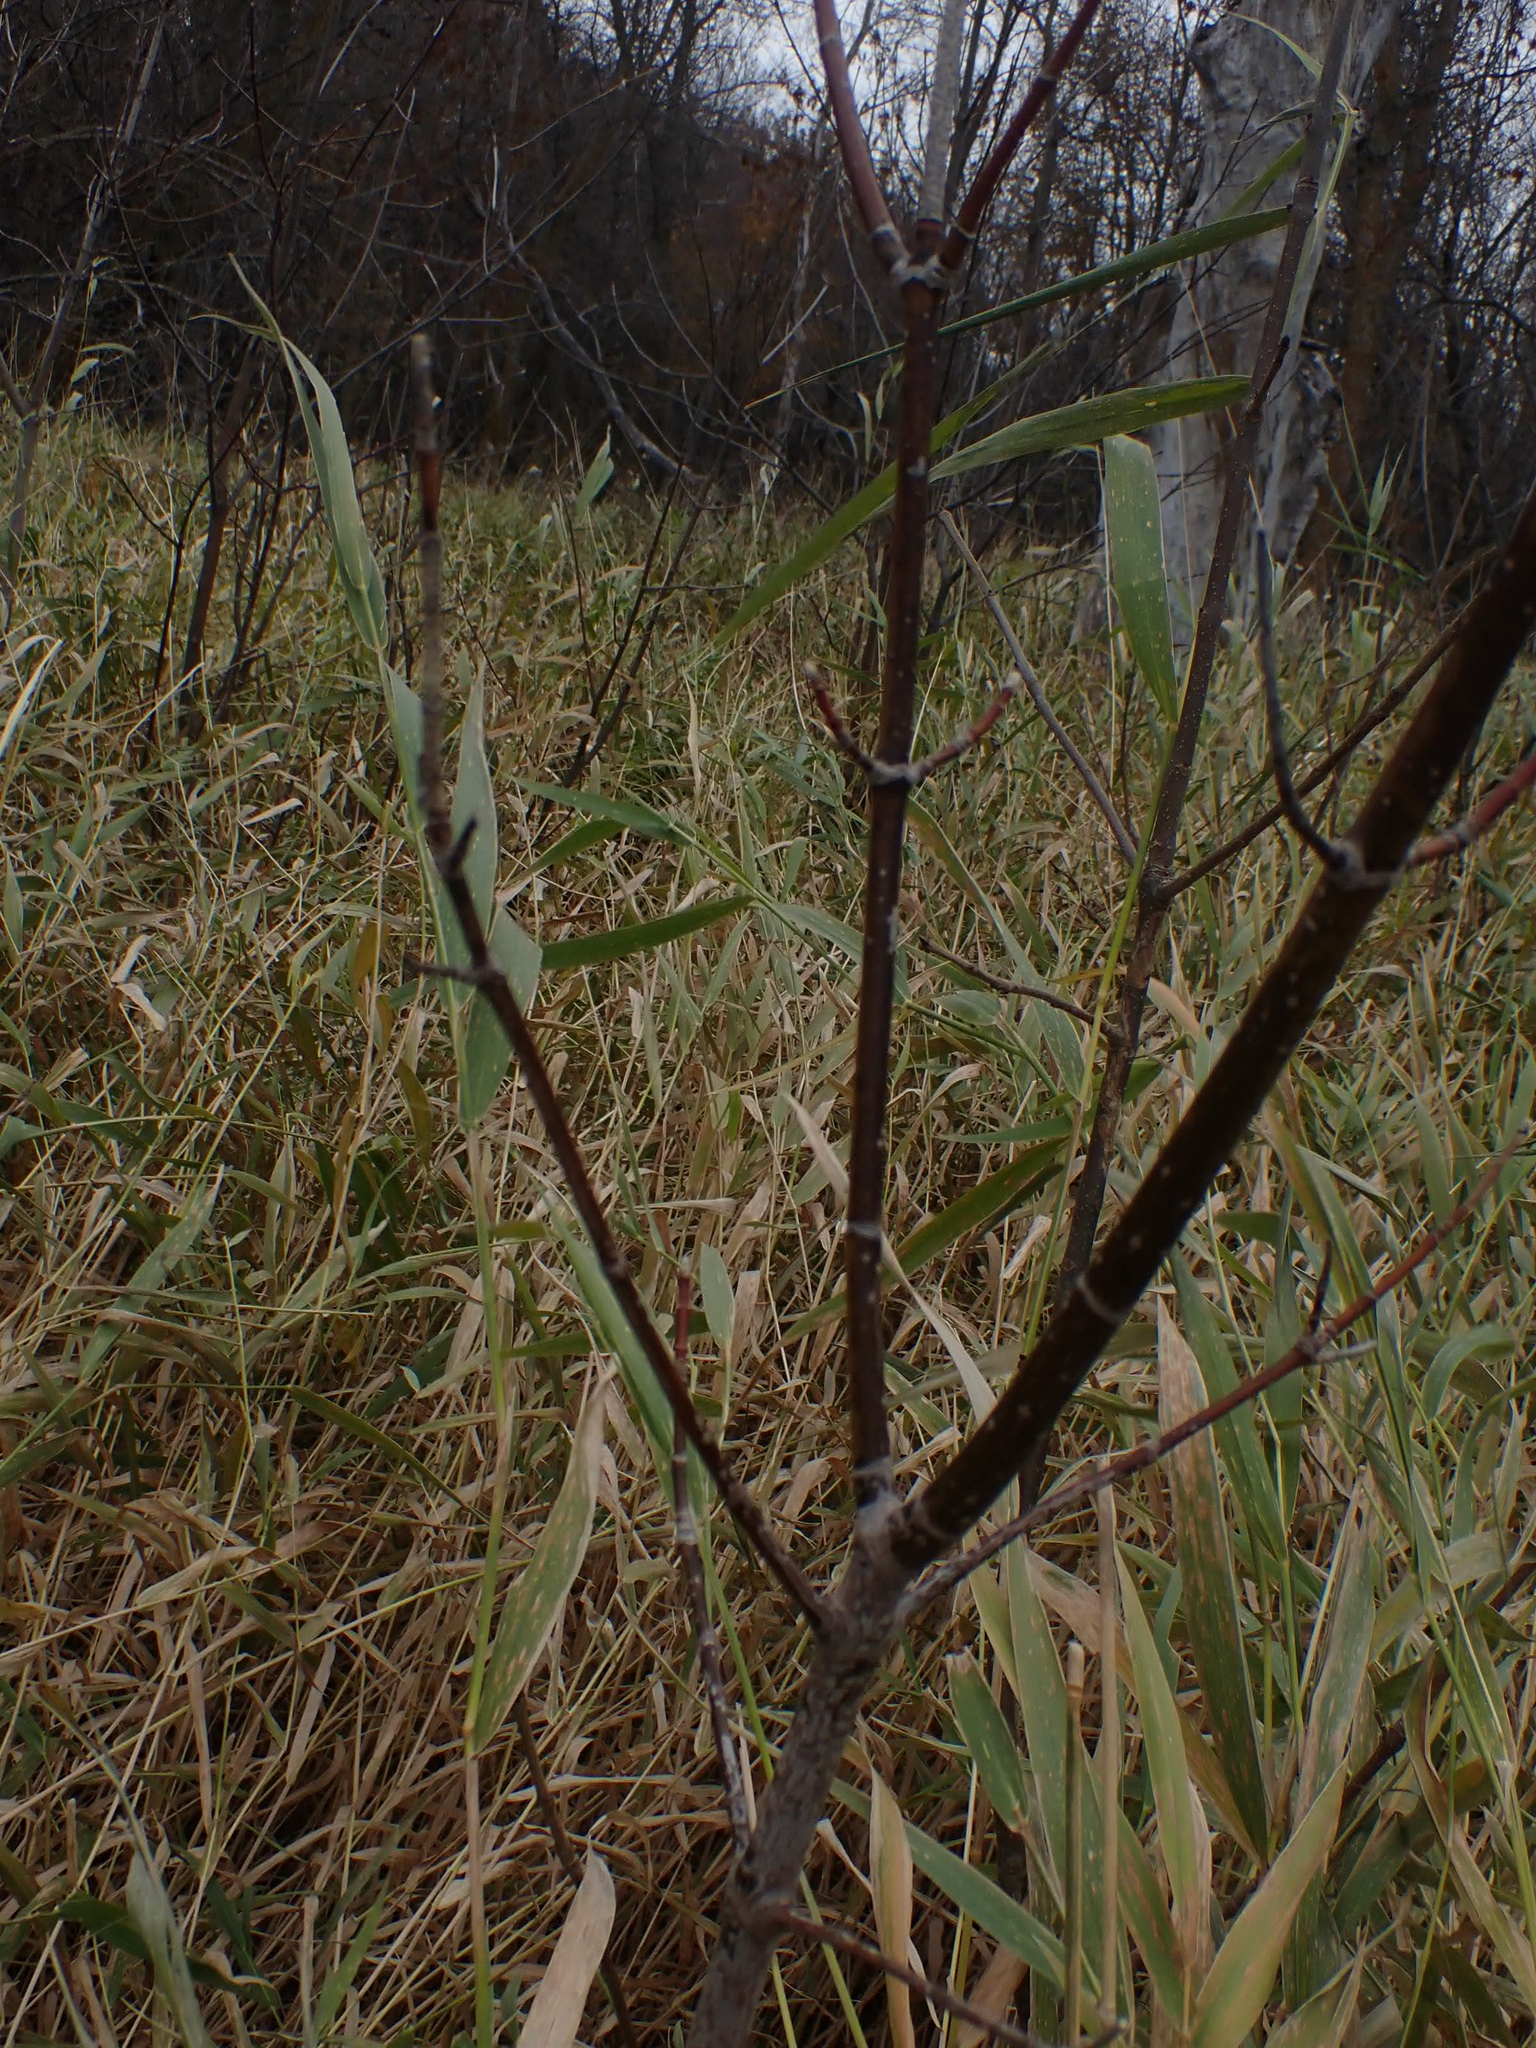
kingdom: Plantae
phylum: Tracheophyta
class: Magnoliopsida
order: Sapindales
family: Sapindaceae
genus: Acer
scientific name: Acer negundo
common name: Ashleaf maple
